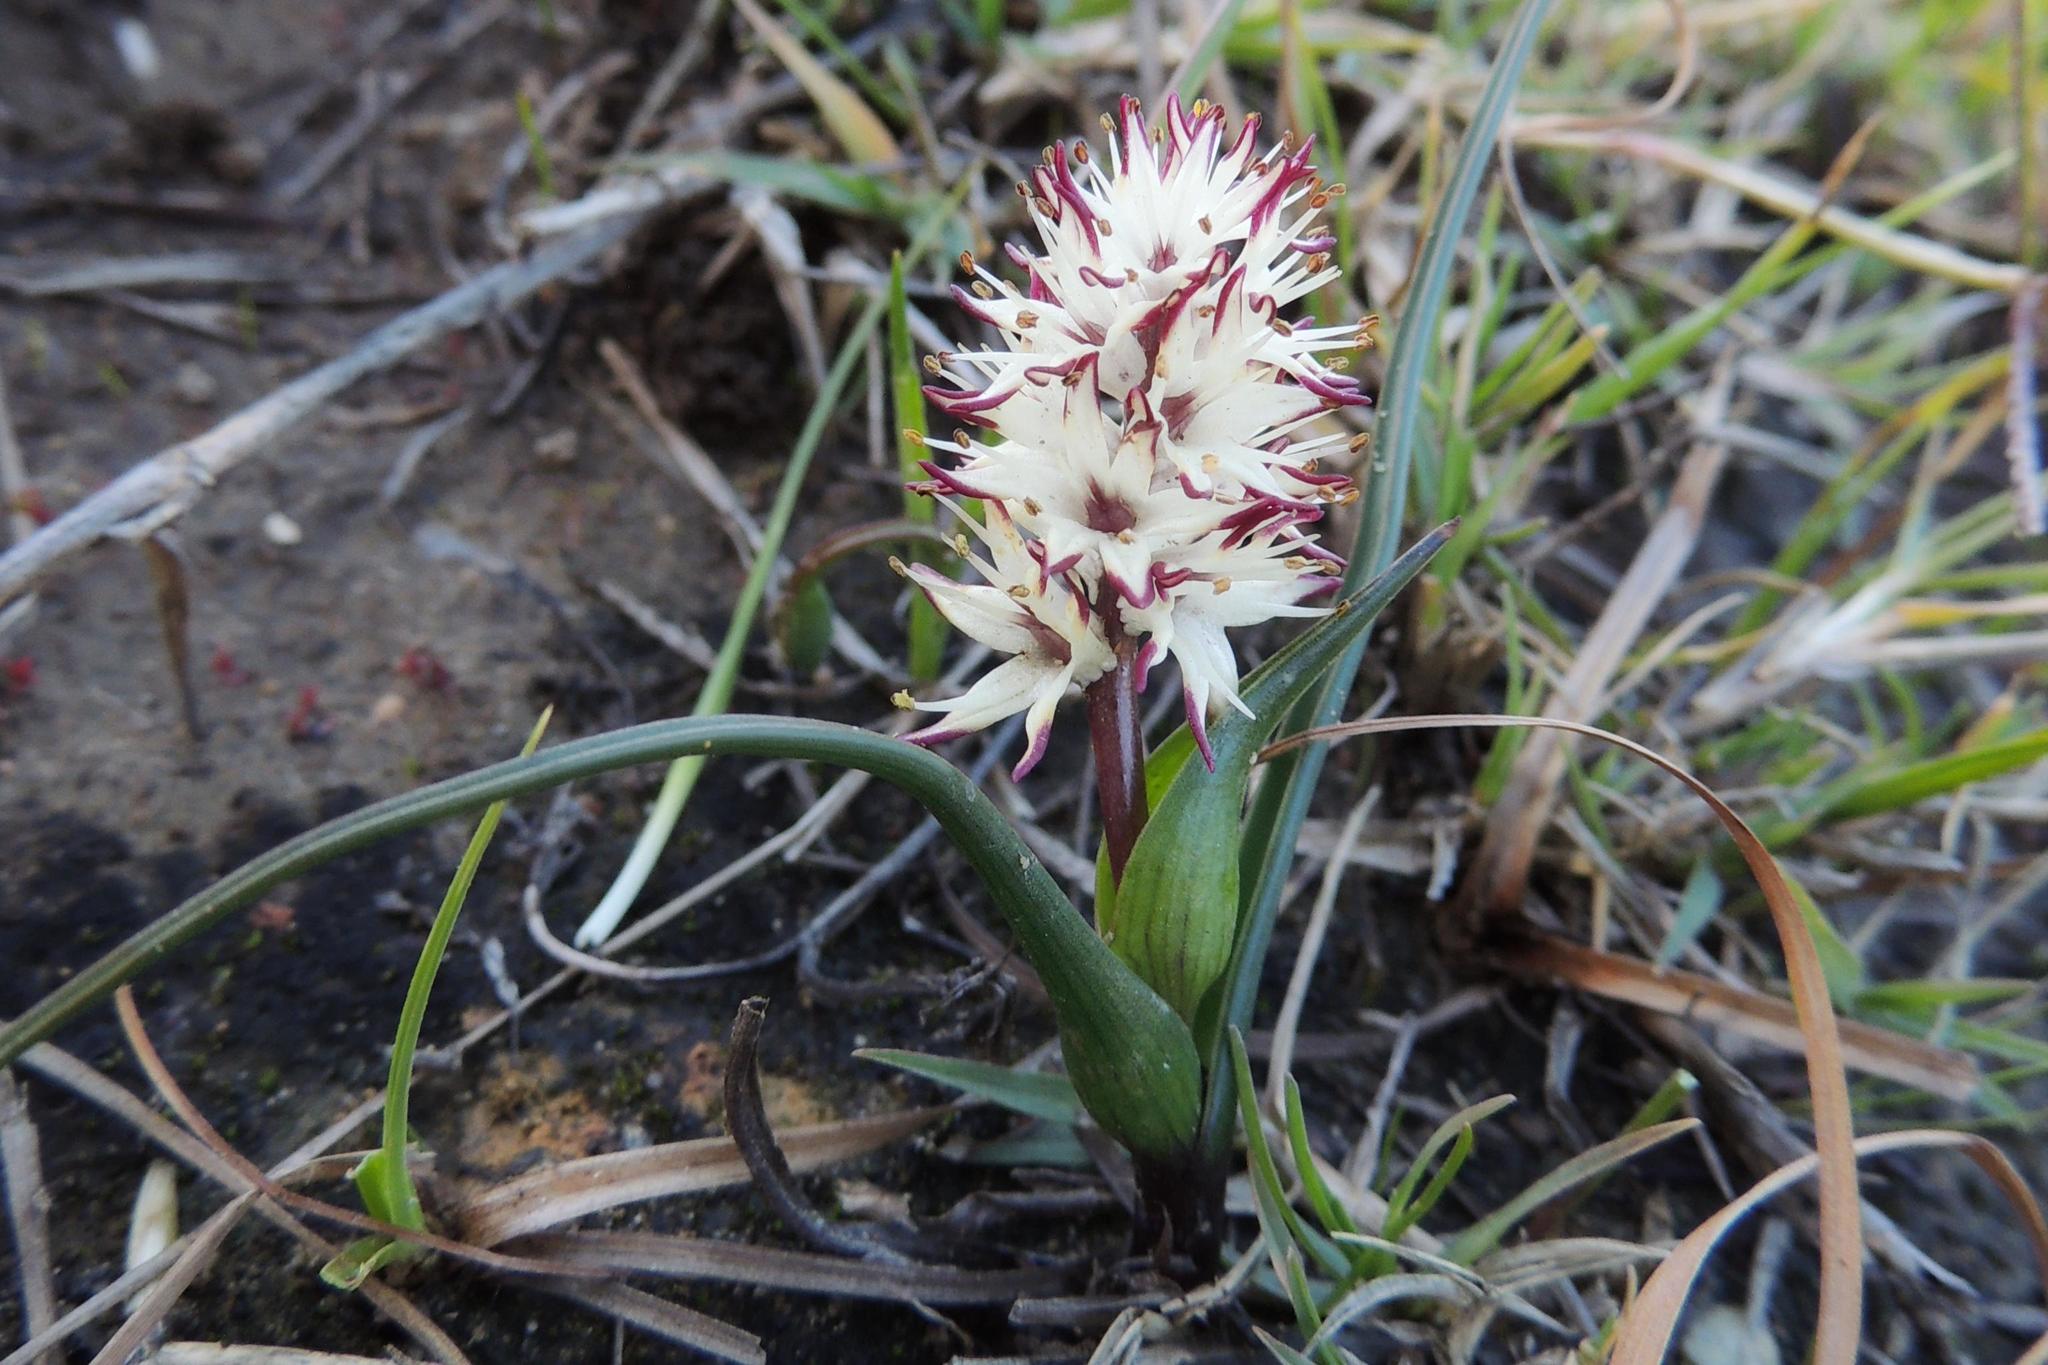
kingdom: Plantae
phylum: Tracheophyta
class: Liliopsida
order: Liliales
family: Colchicaceae
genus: Wurmbea
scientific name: Wurmbea spicata
